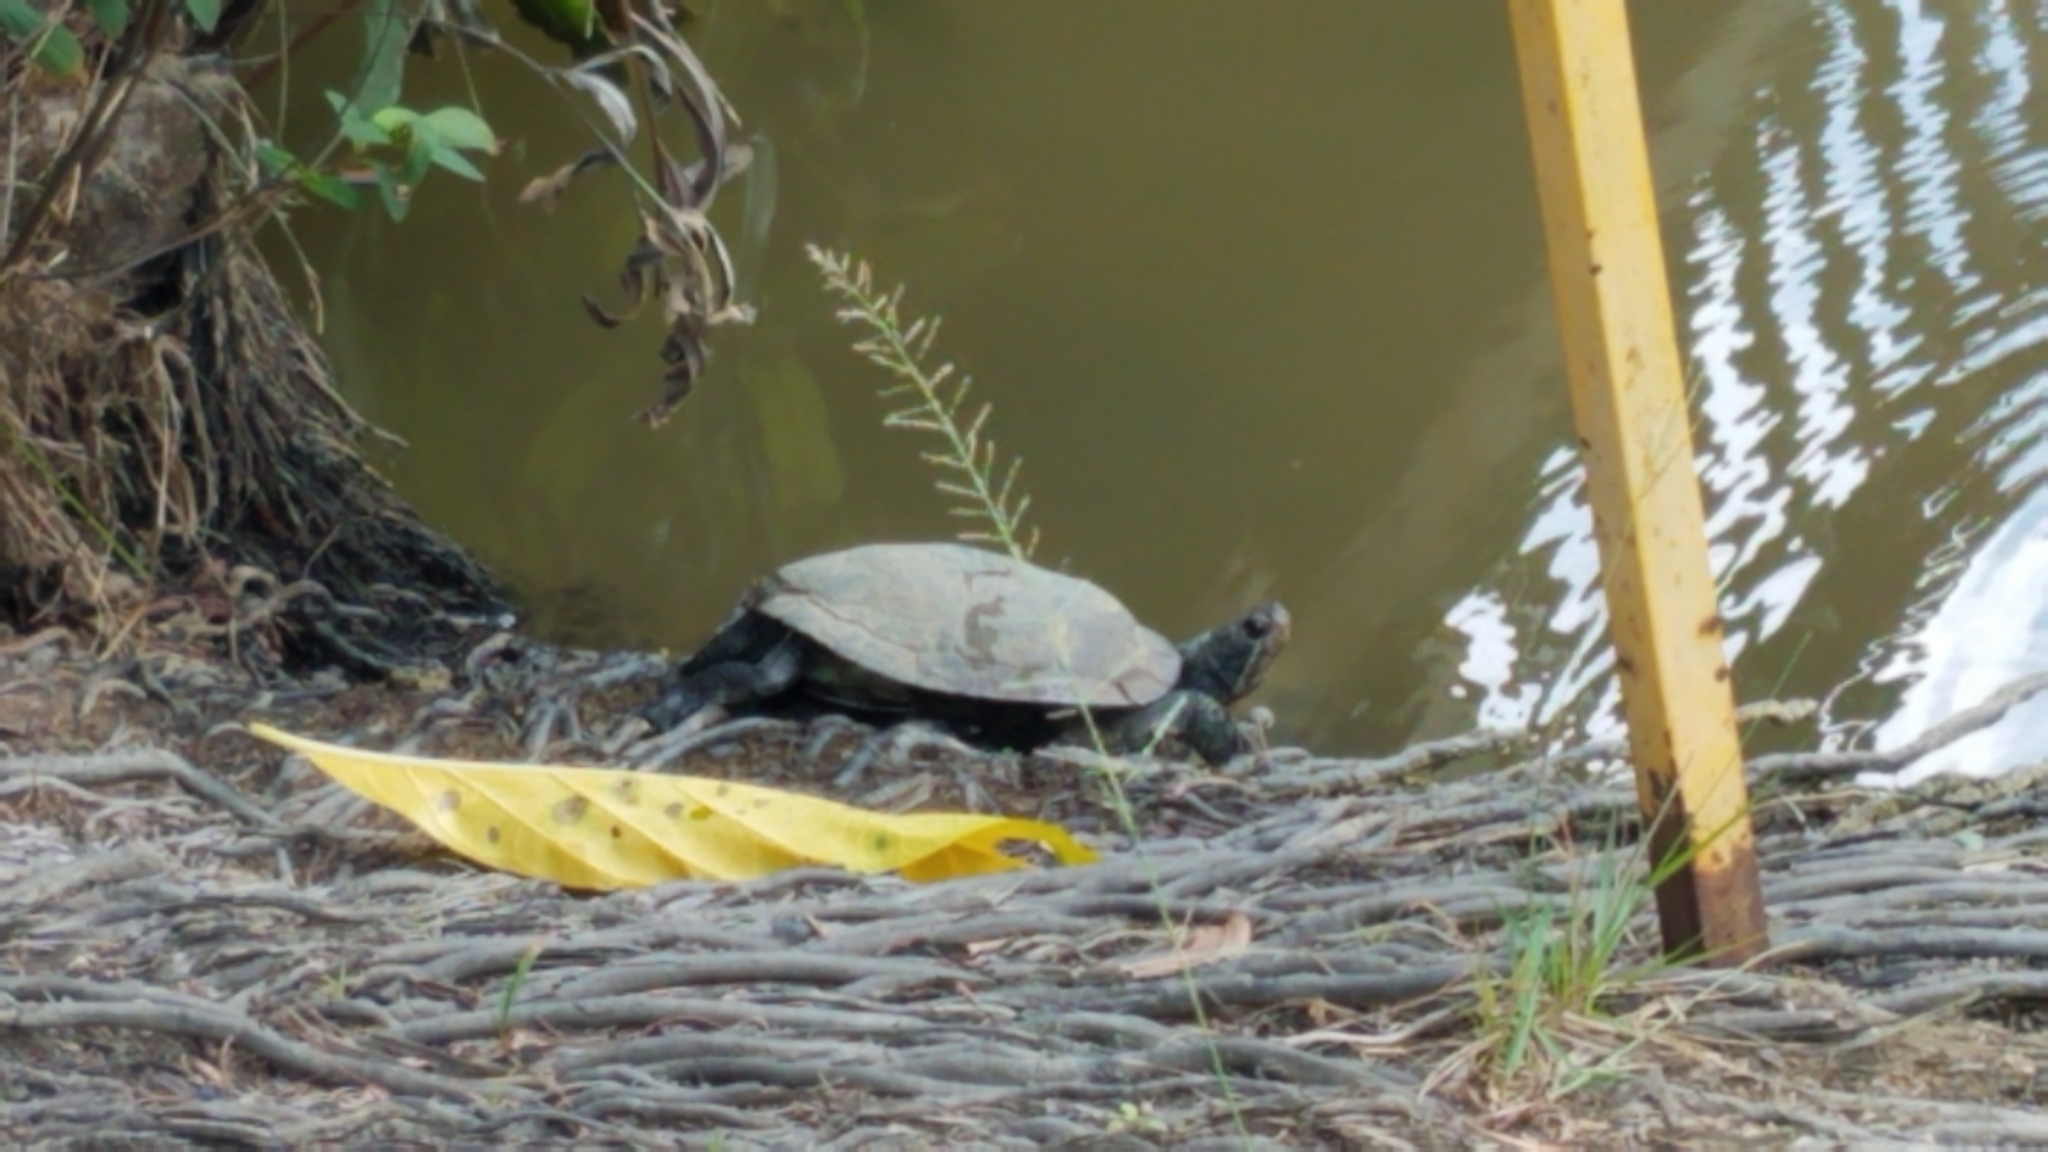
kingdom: Animalia
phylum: Chordata
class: Testudines
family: Emydidae
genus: Trachemys
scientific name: Trachemys scripta
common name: Slider
